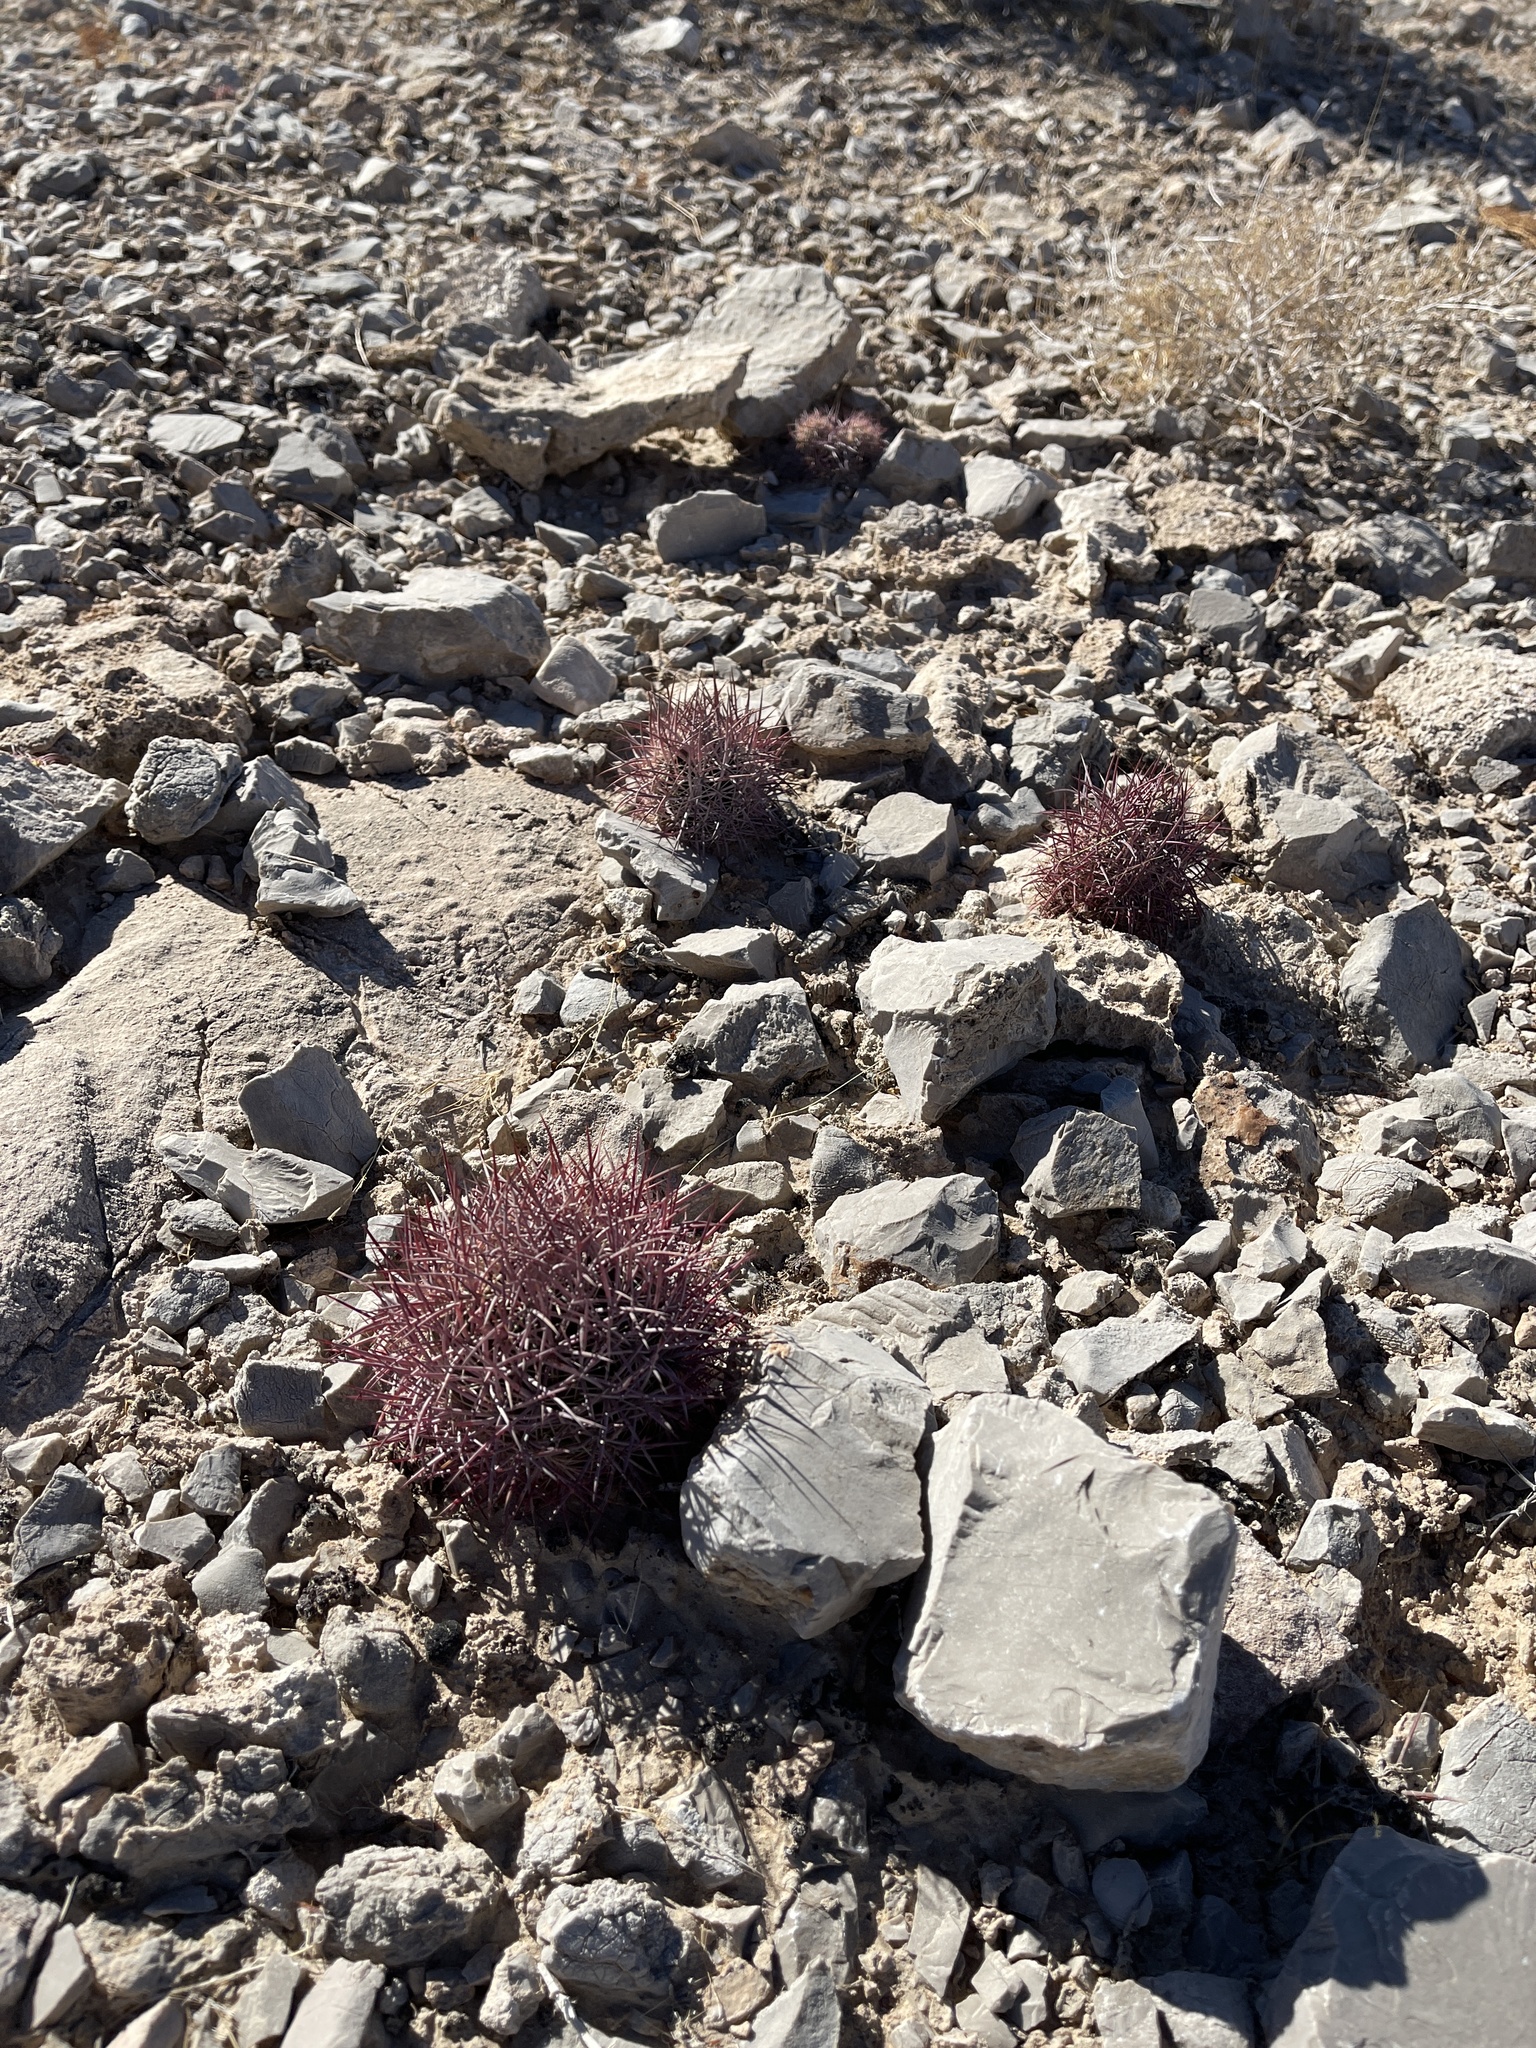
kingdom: Plantae
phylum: Tracheophyta
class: Magnoliopsida
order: Caryophyllales
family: Cactaceae
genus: Sclerocactus
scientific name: Sclerocactus johnsonii
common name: Eight-spine fishhook cactus
